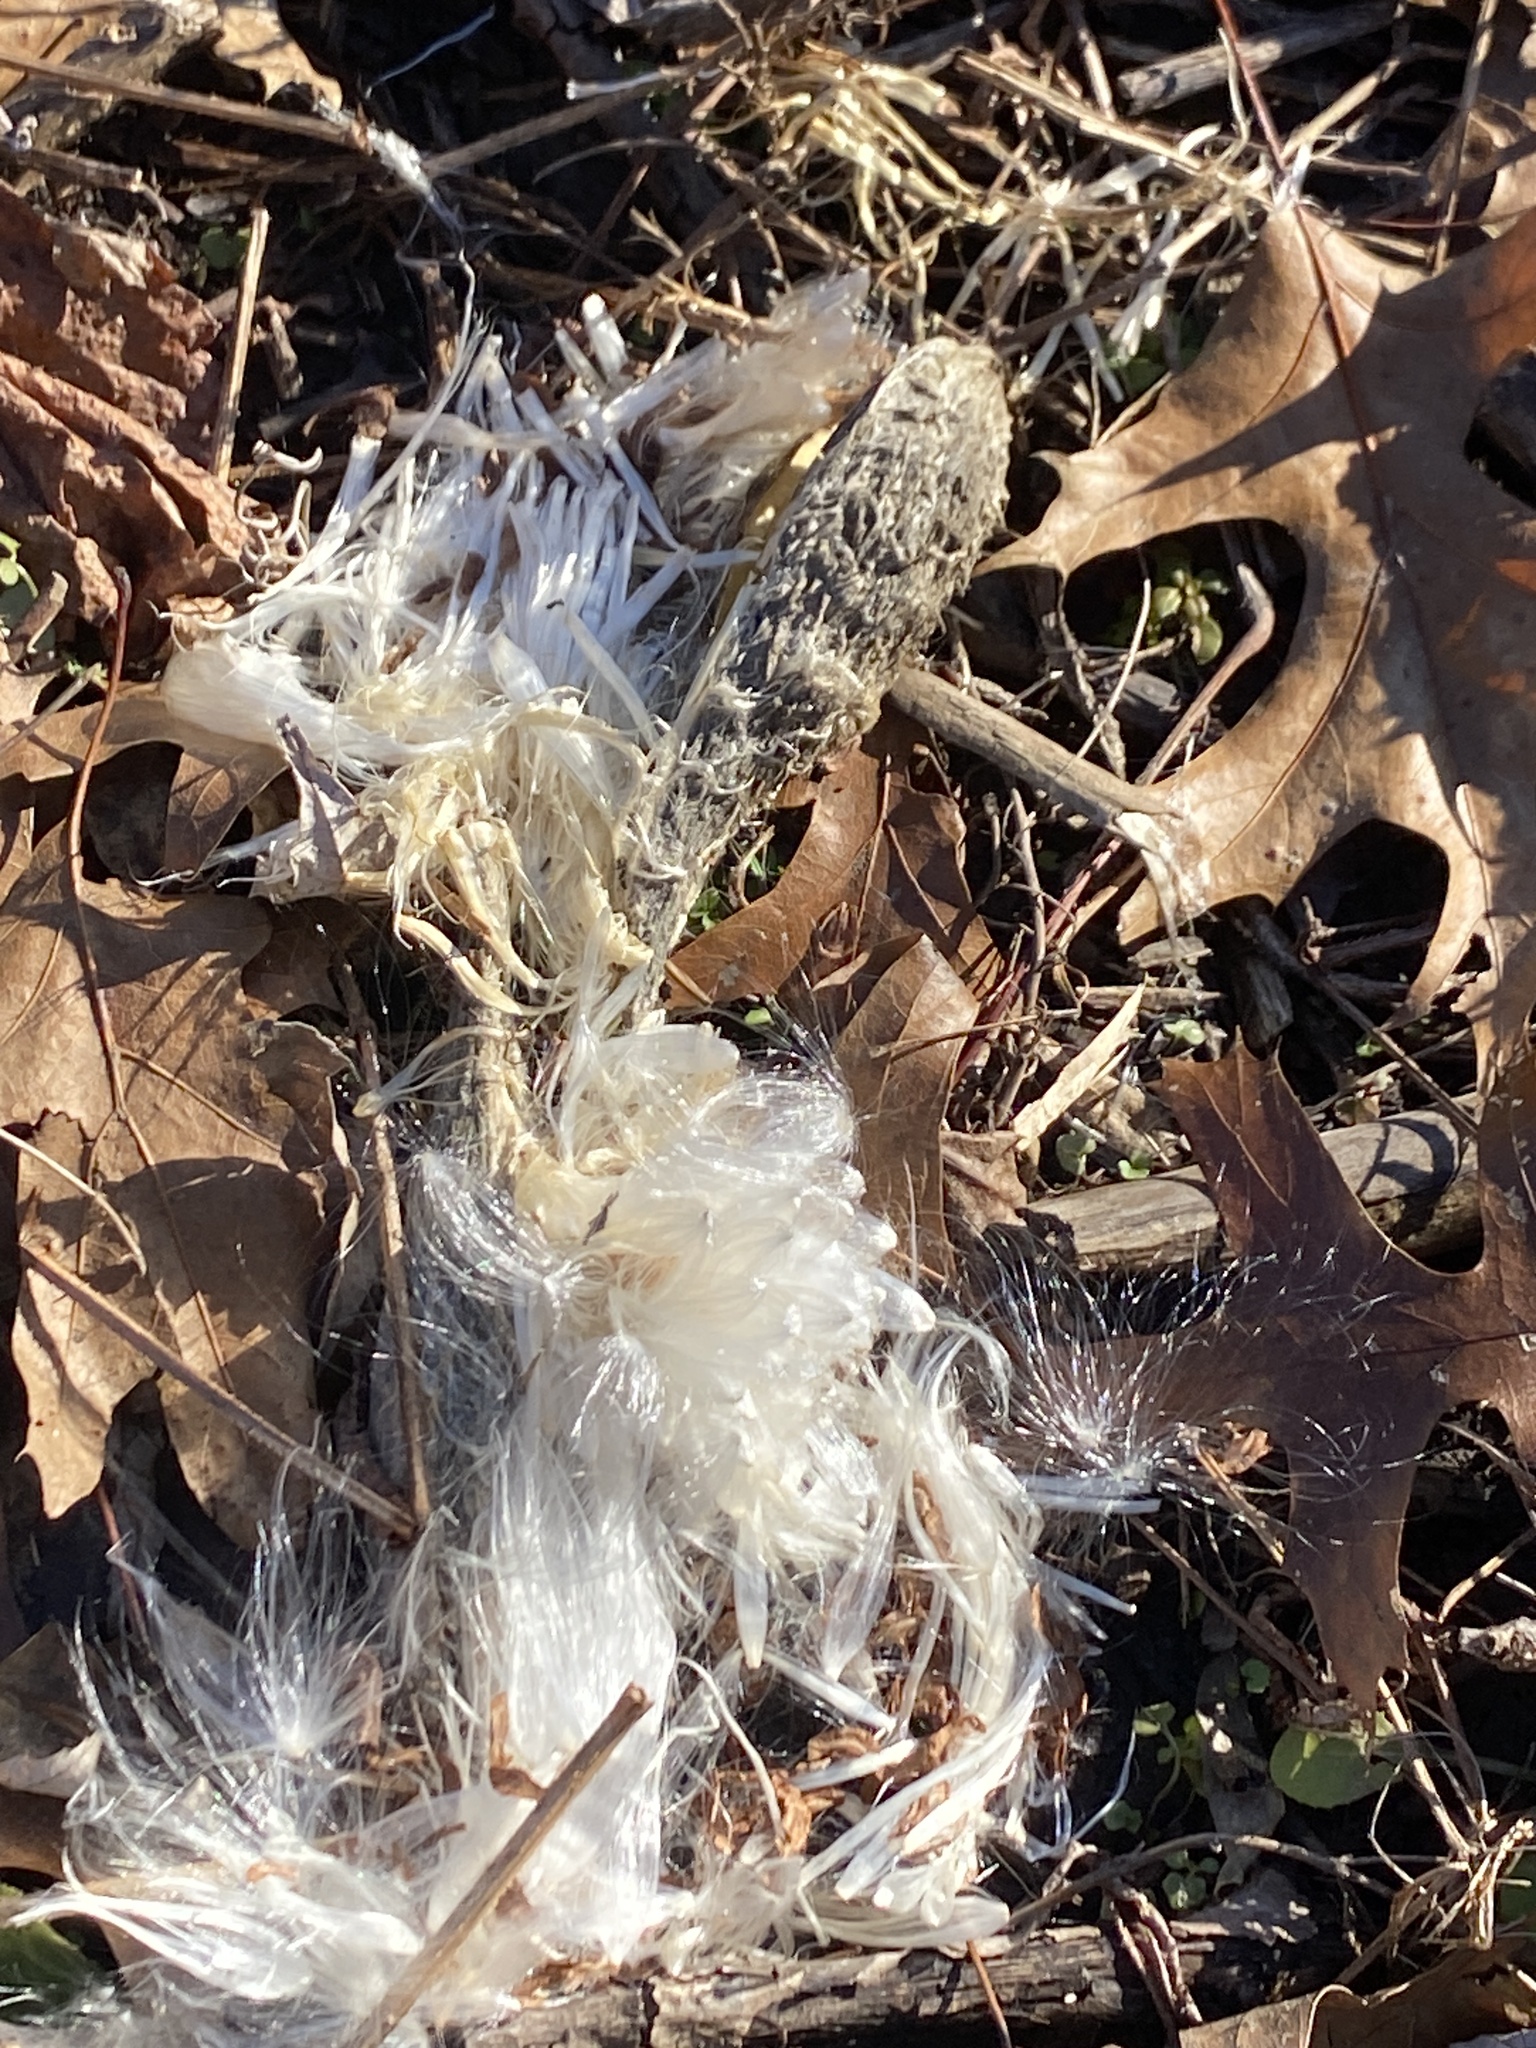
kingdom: Plantae
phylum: Tracheophyta
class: Magnoliopsida
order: Gentianales
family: Apocynaceae
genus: Asclepias
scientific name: Asclepias syriaca
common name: Common milkweed
